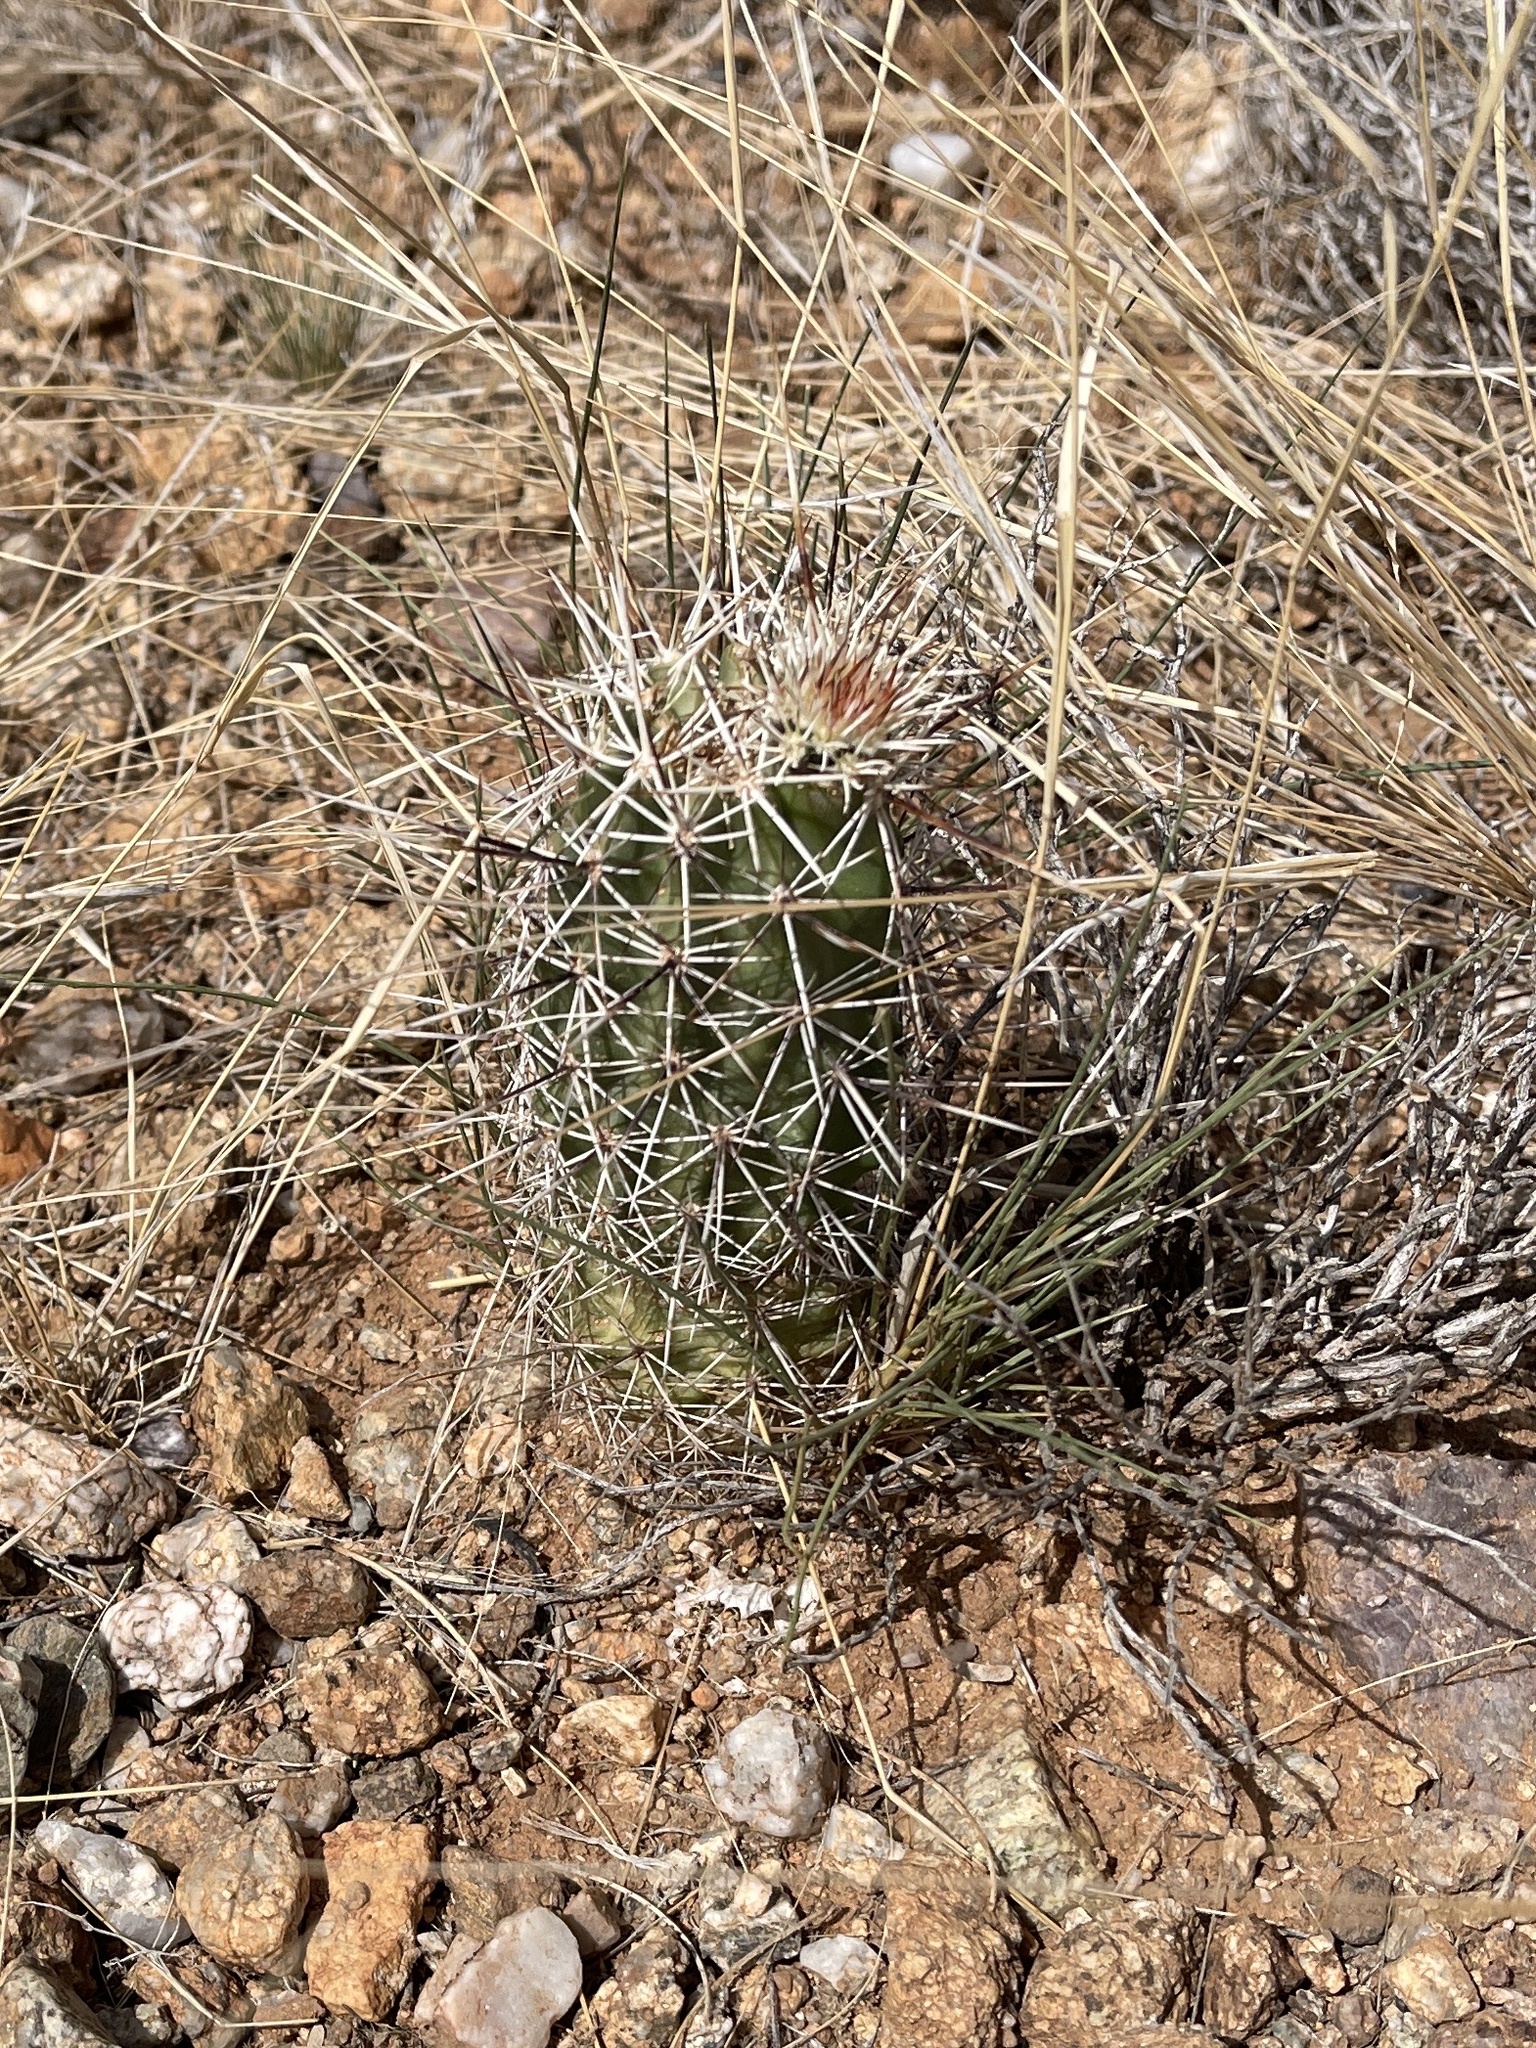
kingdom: Plantae
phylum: Tracheophyta
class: Magnoliopsida
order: Caryophyllales
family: Cactaceae
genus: Echinocereus
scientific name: Echinocereus fasciculatus
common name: Bundle hedgehog
